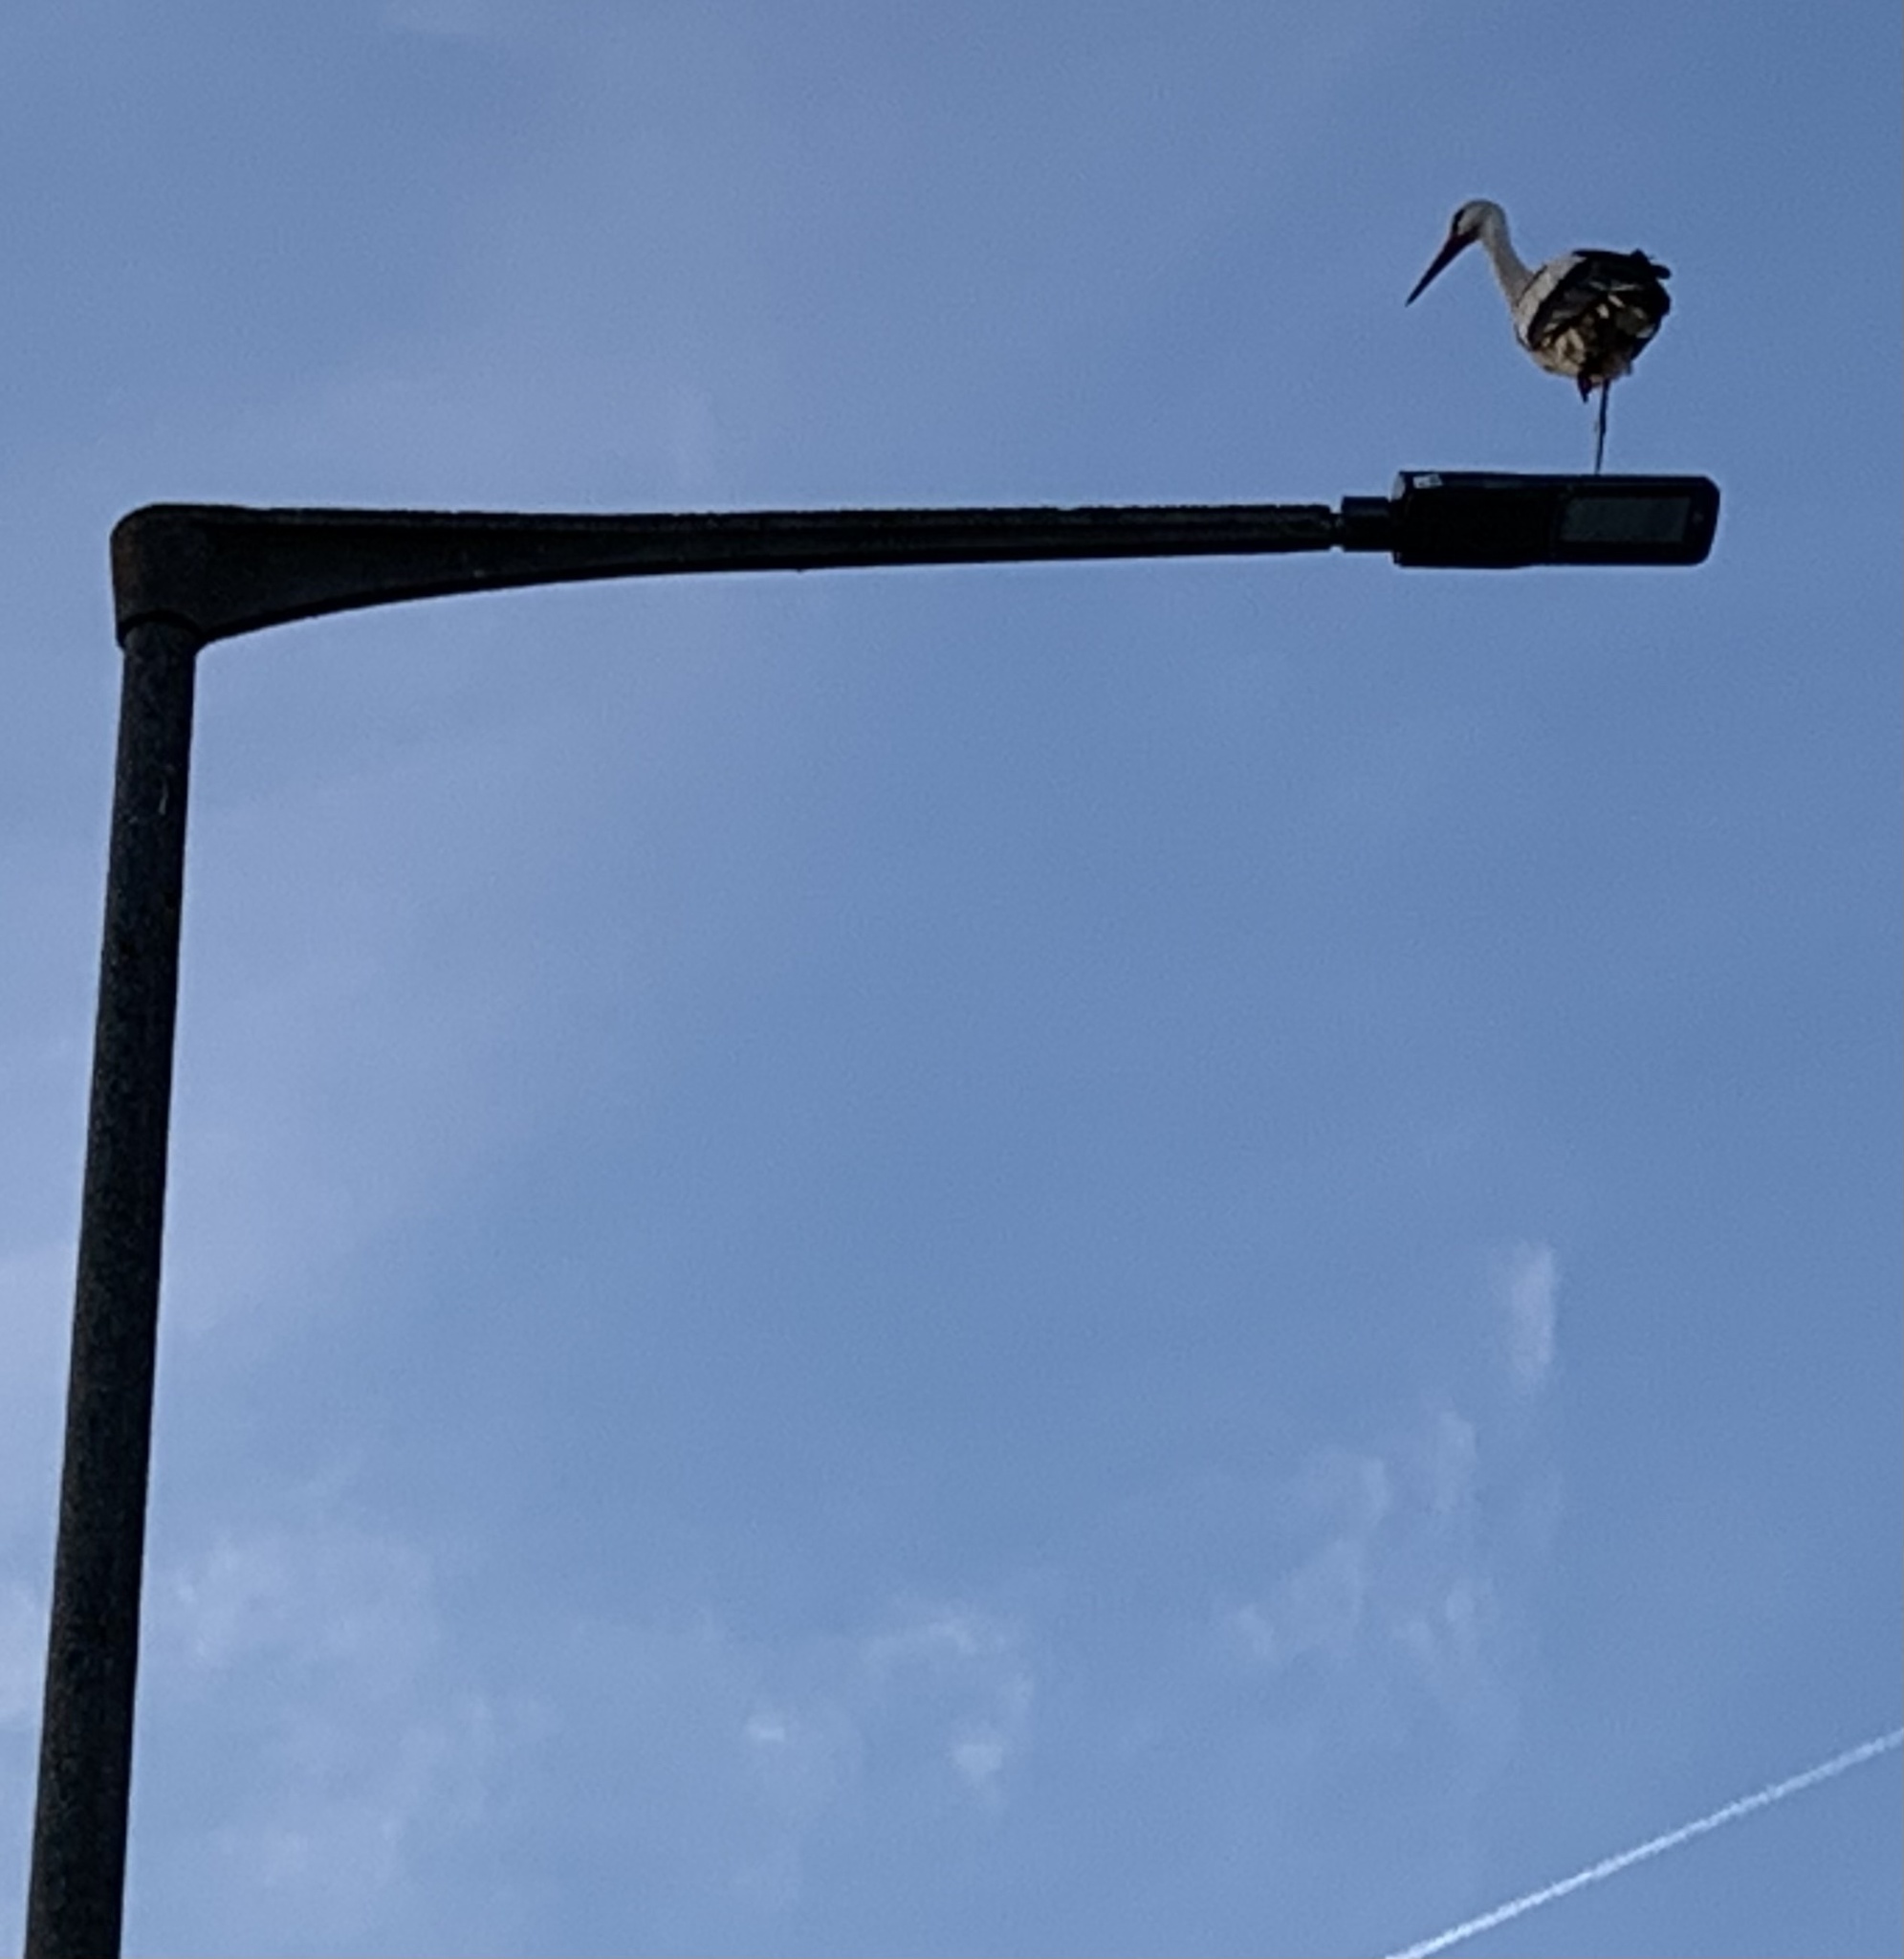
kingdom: Animalia
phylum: Chordata
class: Aves
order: Ciconiiformes
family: Ciconiidae
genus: Ciconia
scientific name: Ciconia ciconia
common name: White stork
